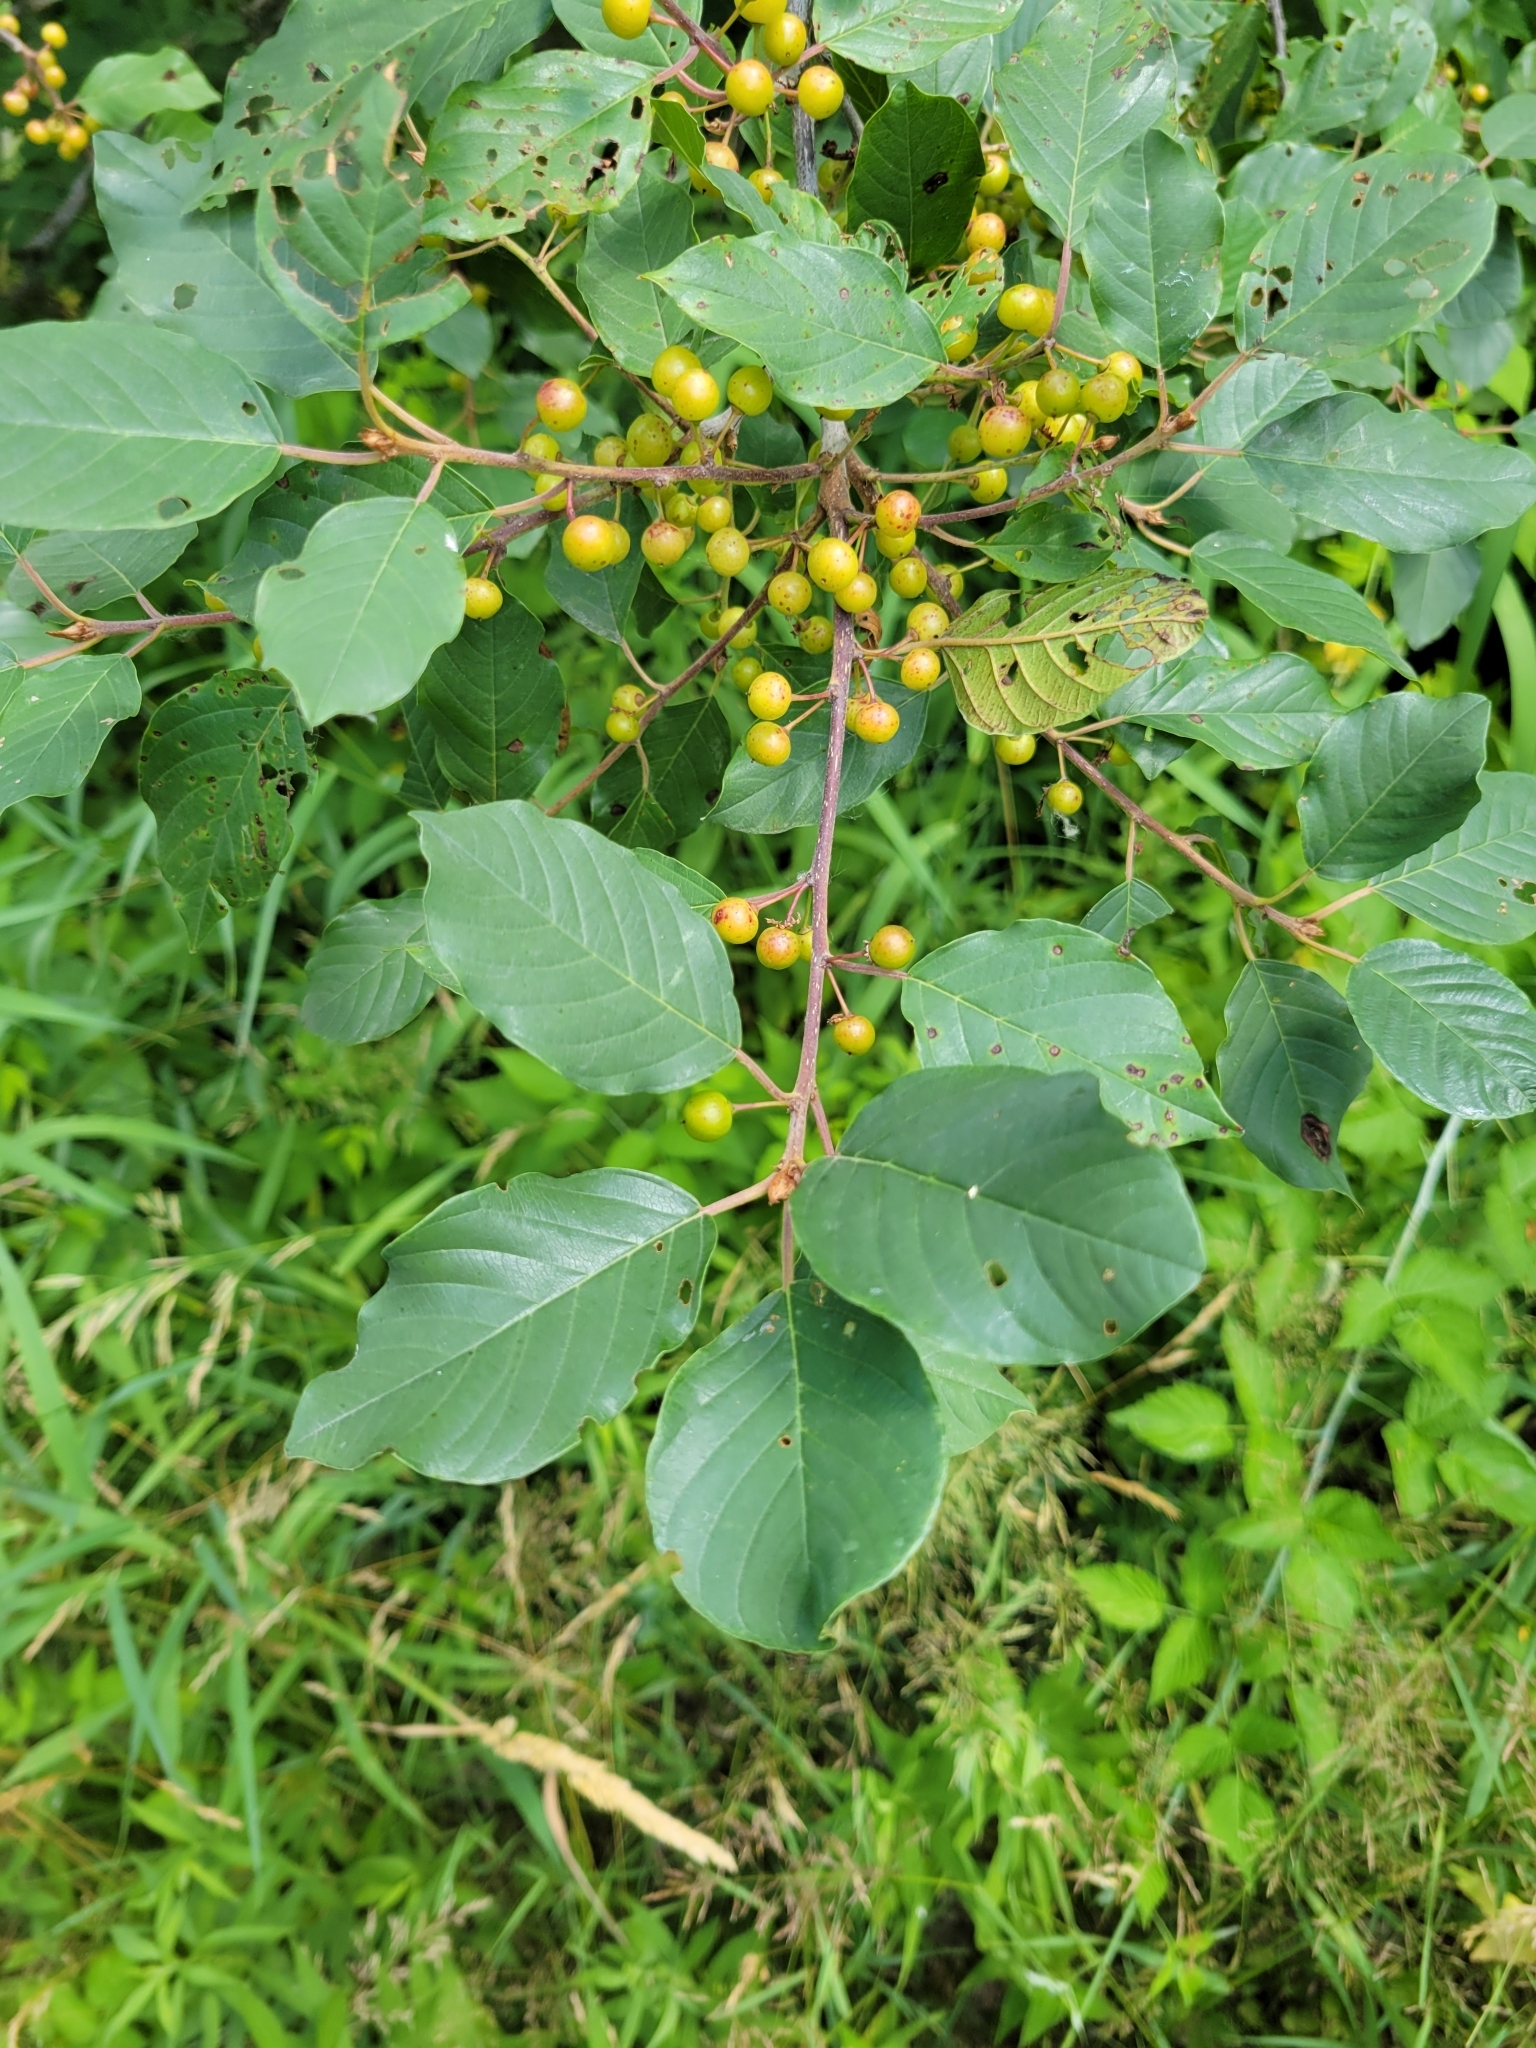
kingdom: Plantae
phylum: Tracheophyta
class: Magnoliopsida
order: Rosales
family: Rhamnaceae
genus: Frangula
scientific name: Frangula alnus
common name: Alder buckthorn
